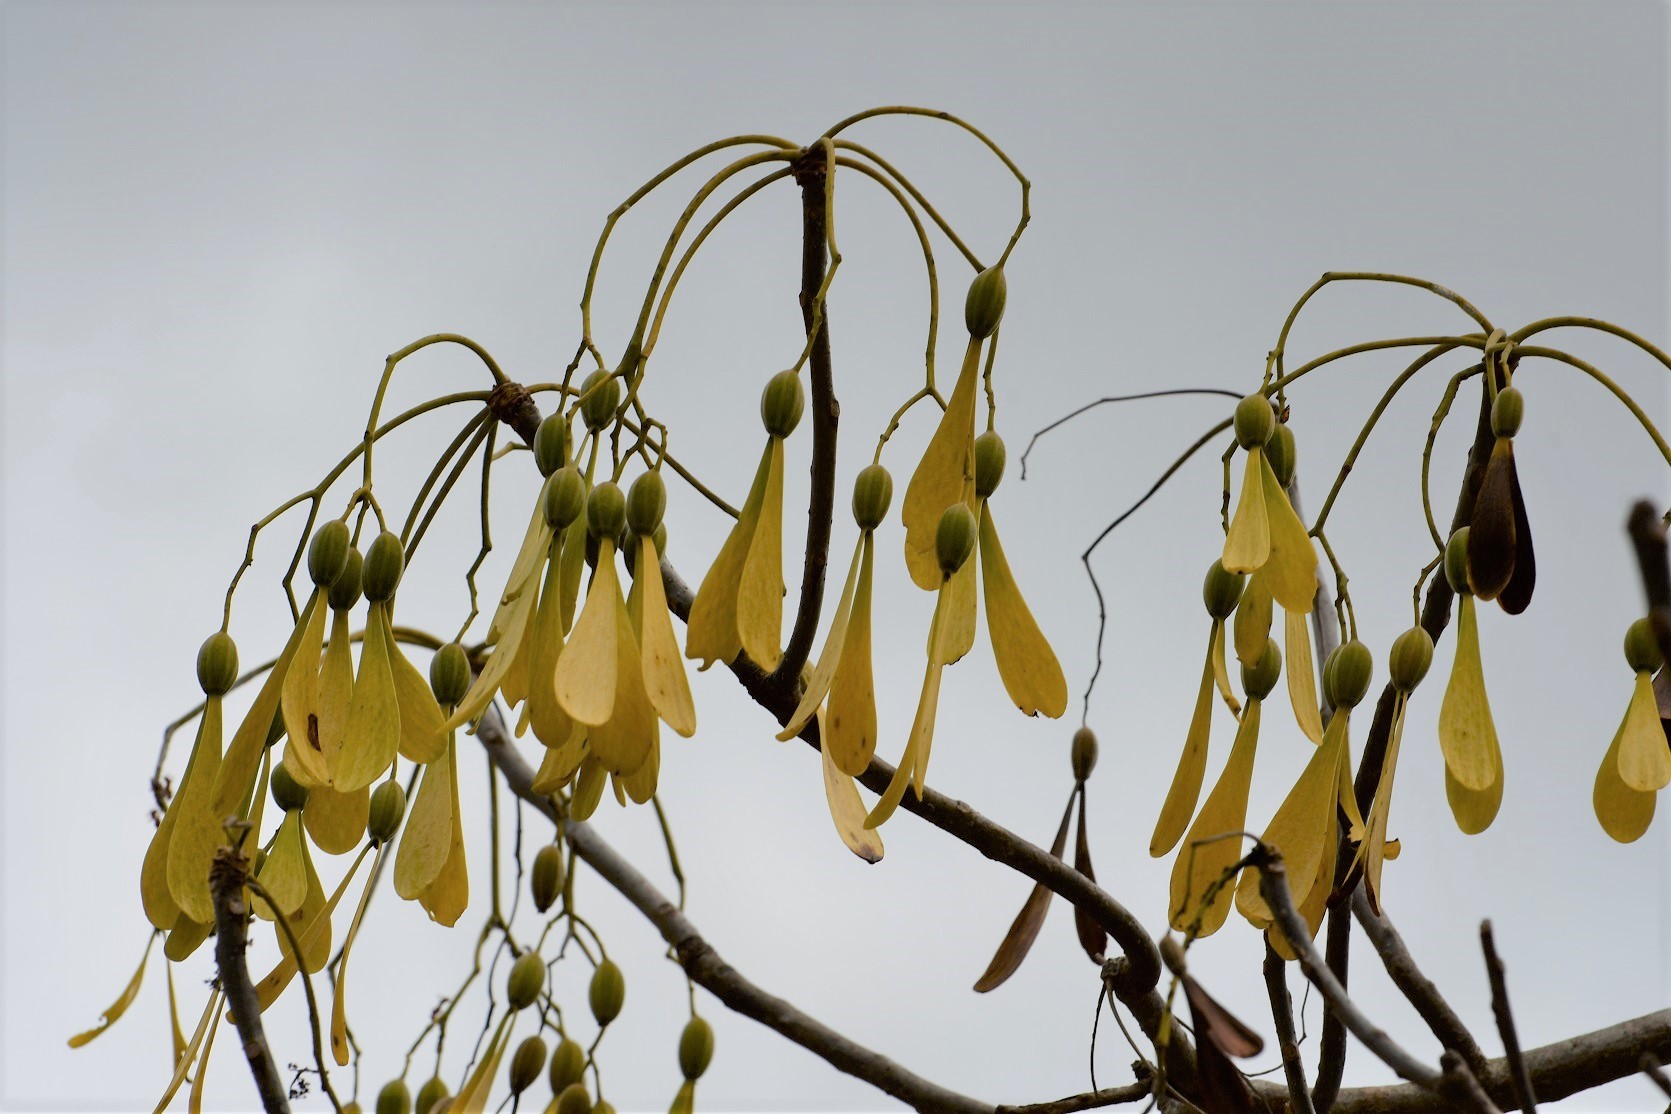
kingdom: Plantae
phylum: Tracheophyta
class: Magnoliopsida
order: Laurales
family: Hernandiaceae
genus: Gyrocarpus
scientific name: Gyrocarpus mocinoi
